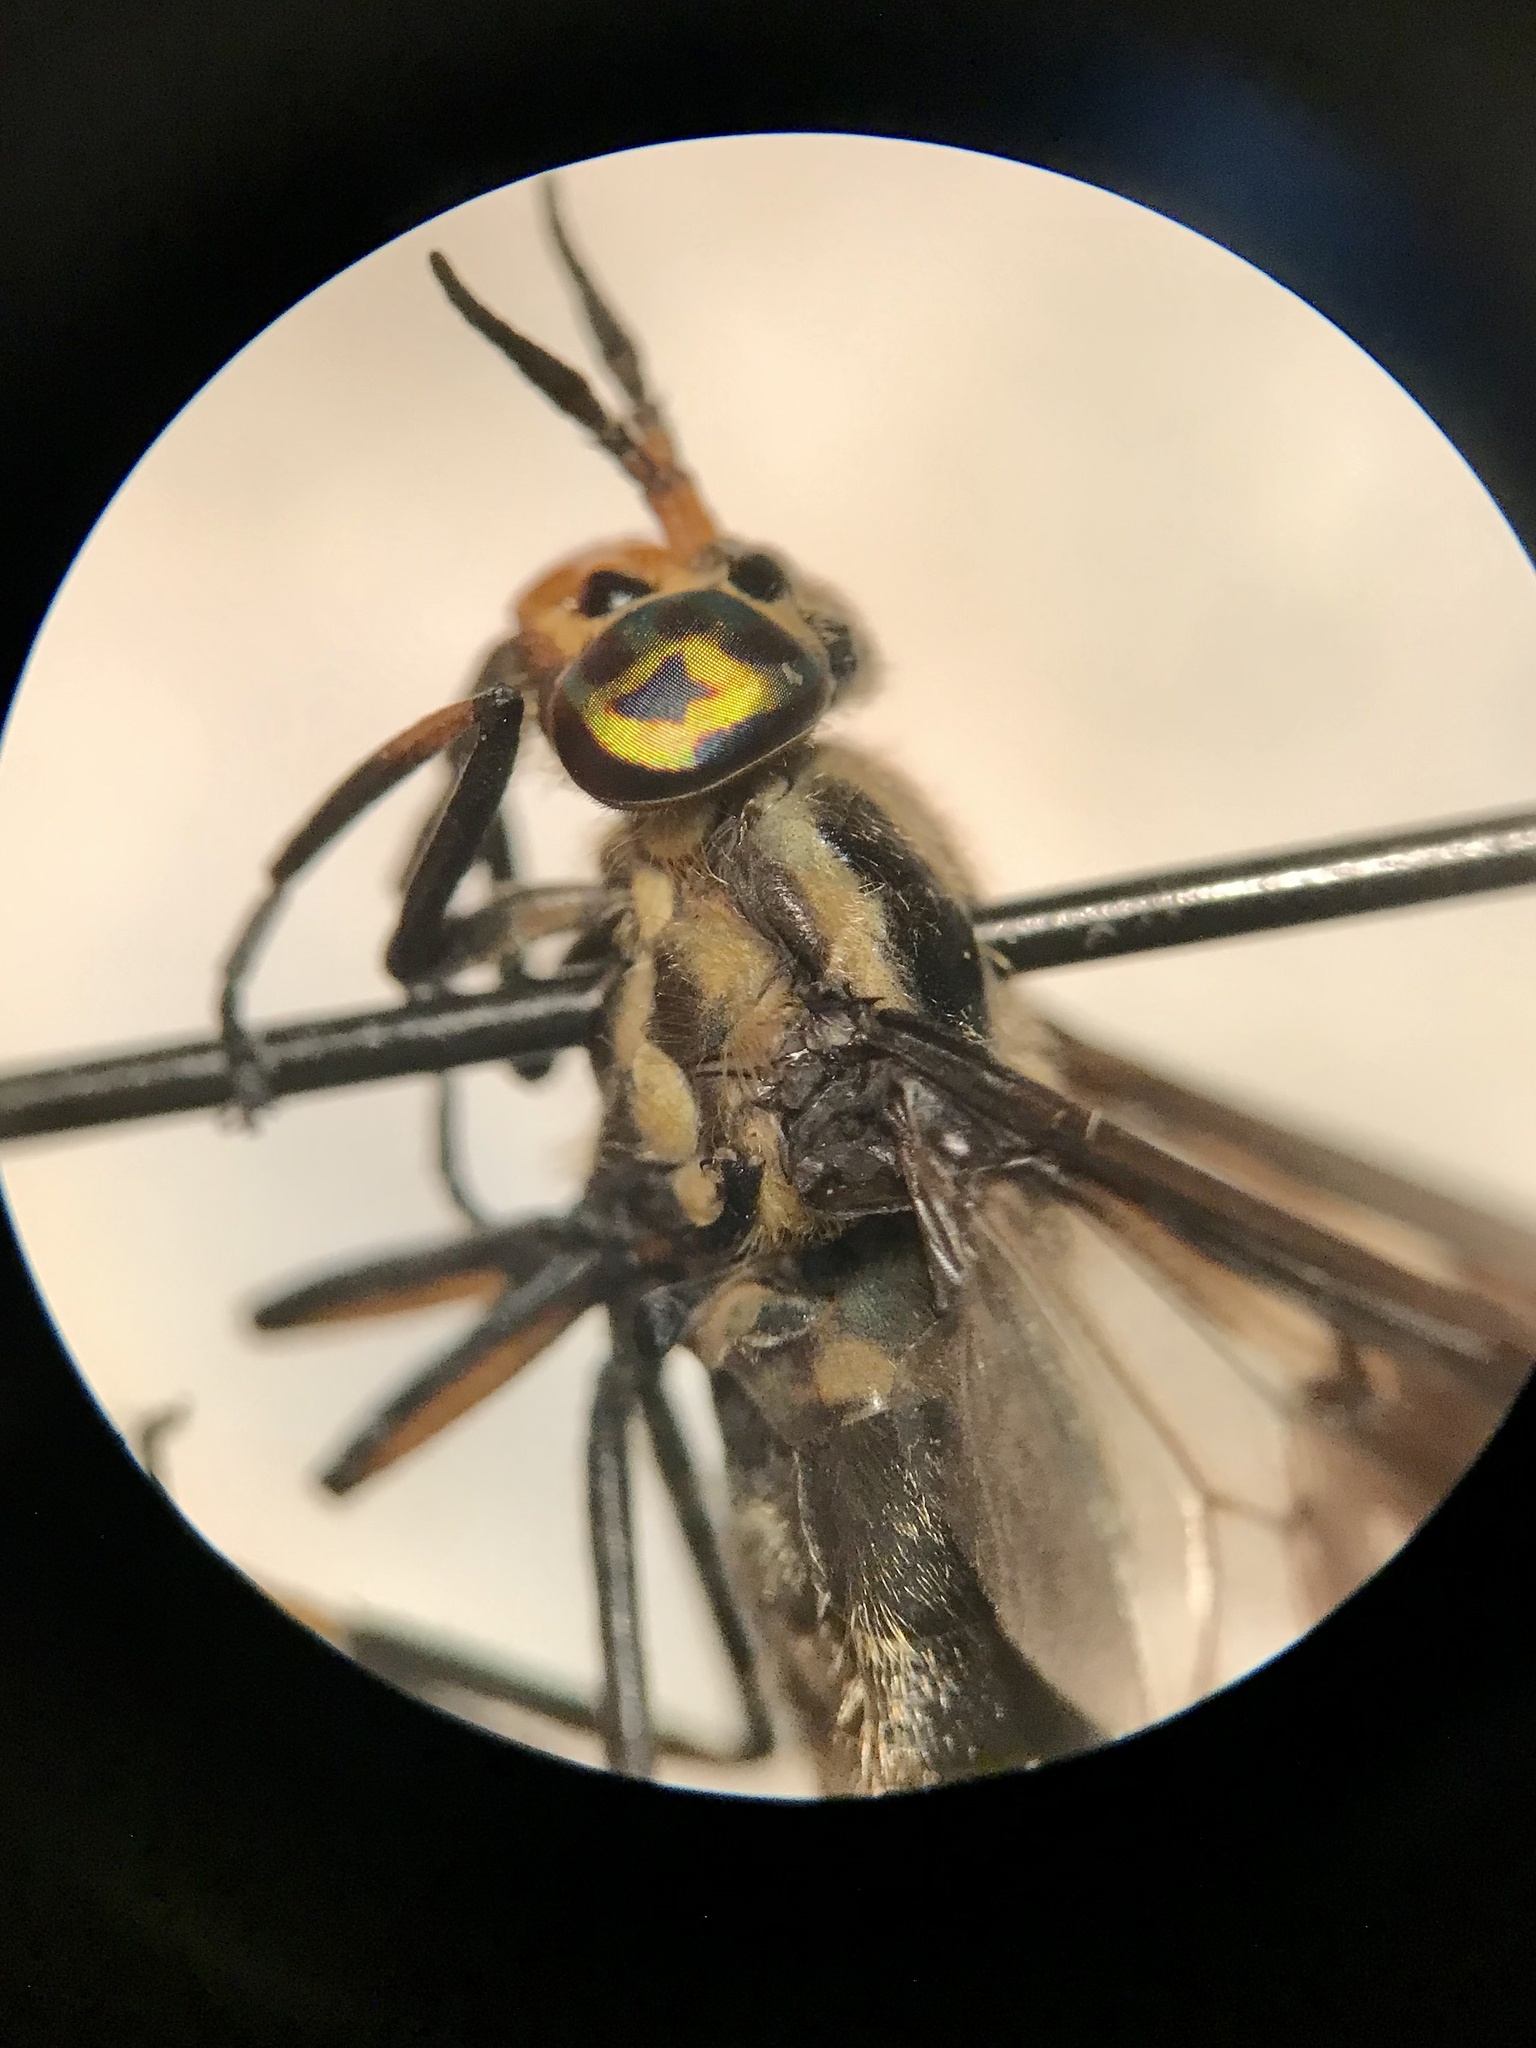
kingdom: Animalia
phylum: Arthropoda
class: Insecta
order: Diptera
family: Tabanidae
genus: Chrysops
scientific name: Chrysops calvus
